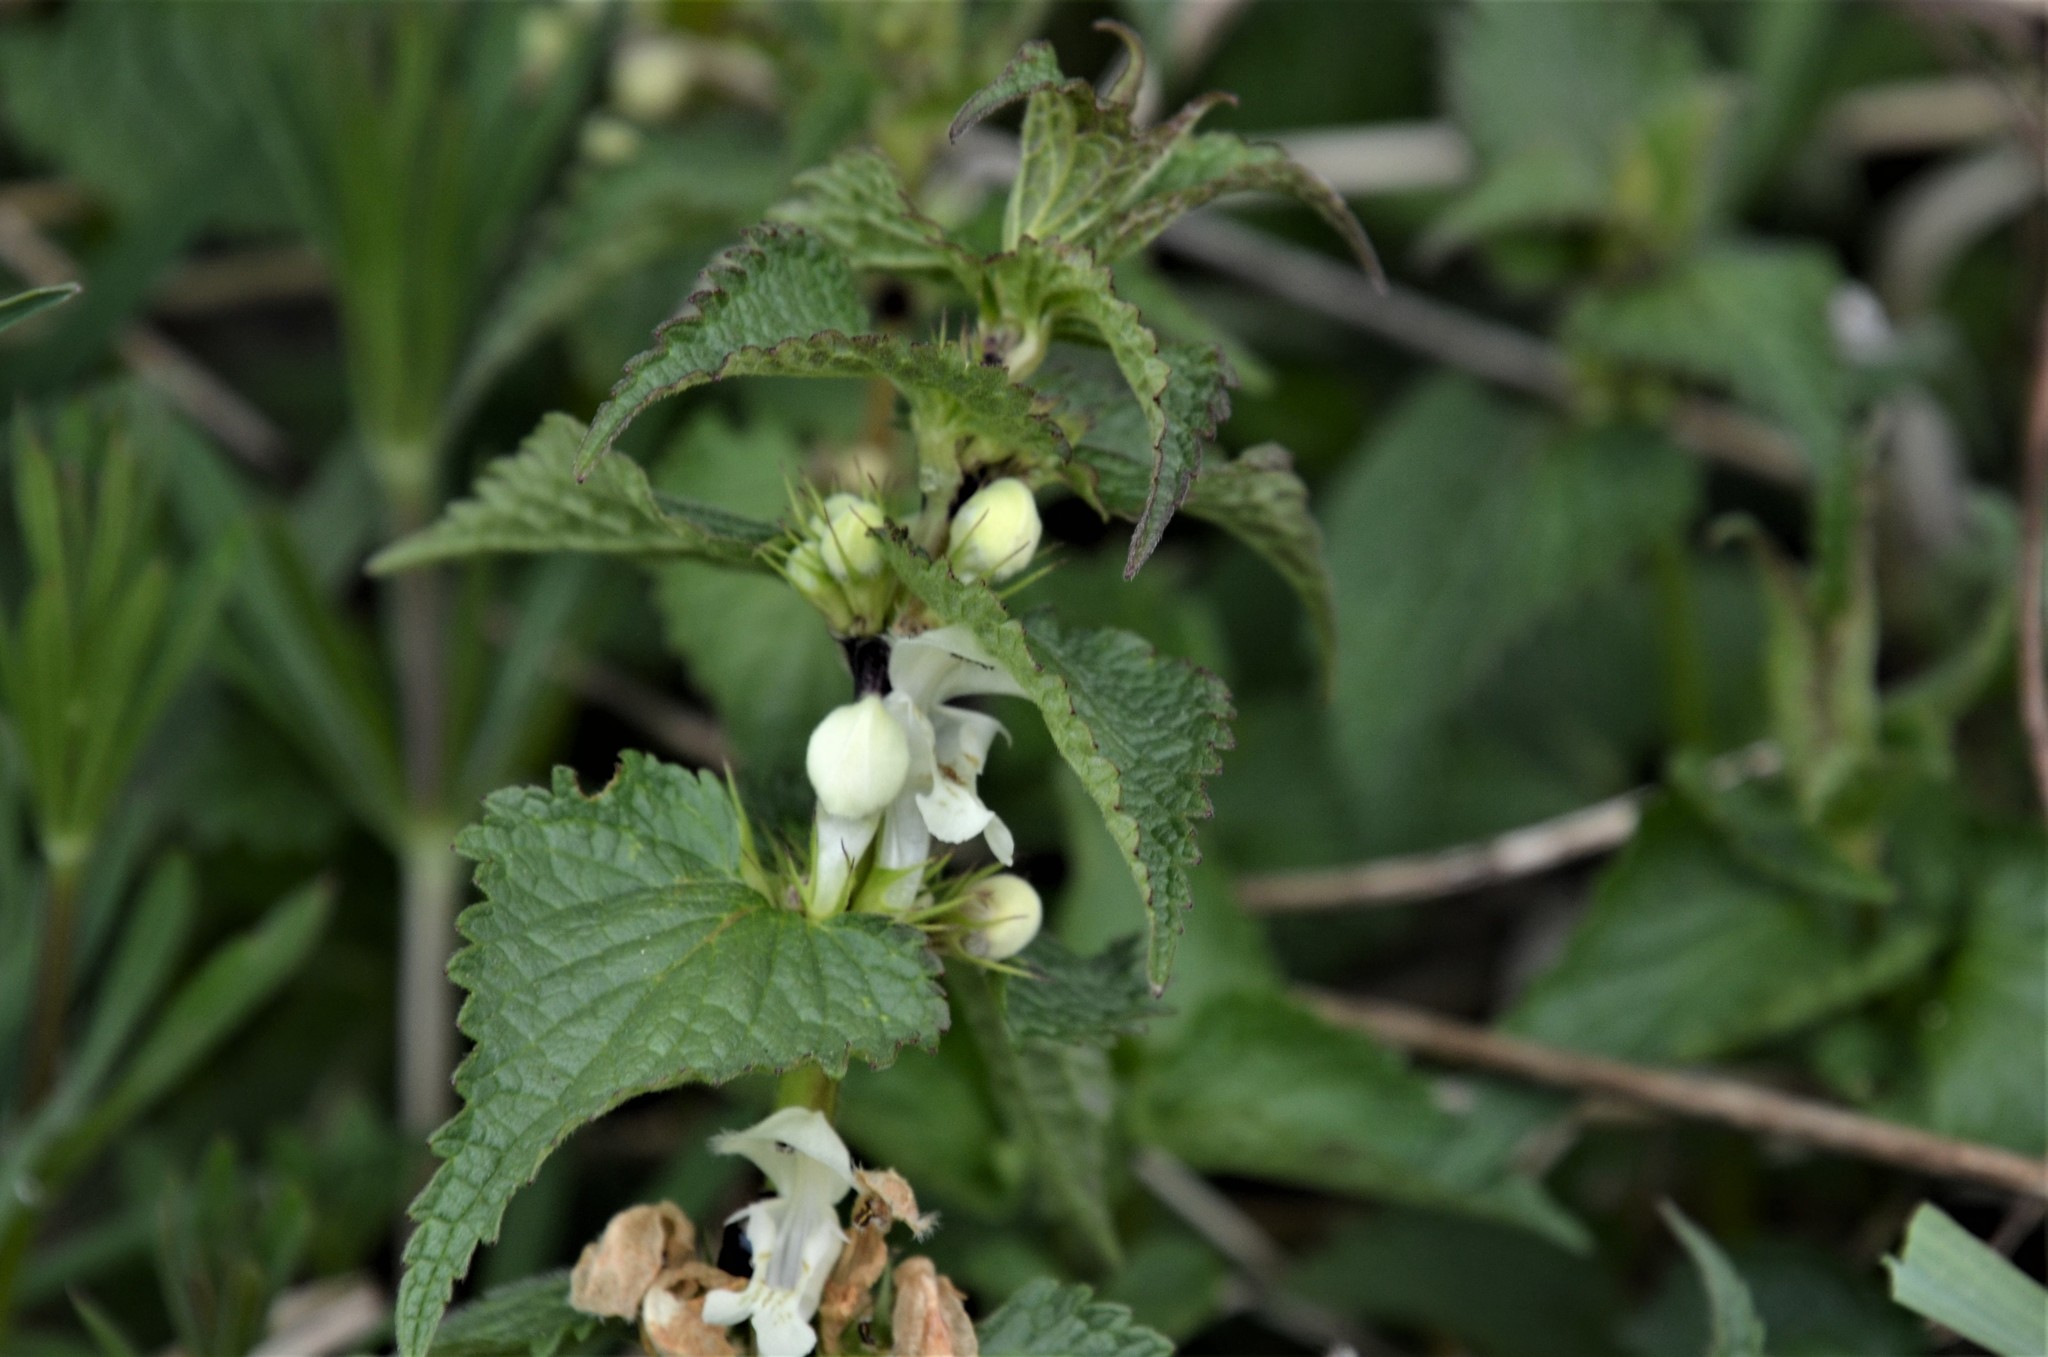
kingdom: Plantae
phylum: Tracheophyta
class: Magnoliopsida
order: Lamiales
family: Lamiaceae
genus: Lamium
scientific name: Lamium album
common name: White dead-nettle
